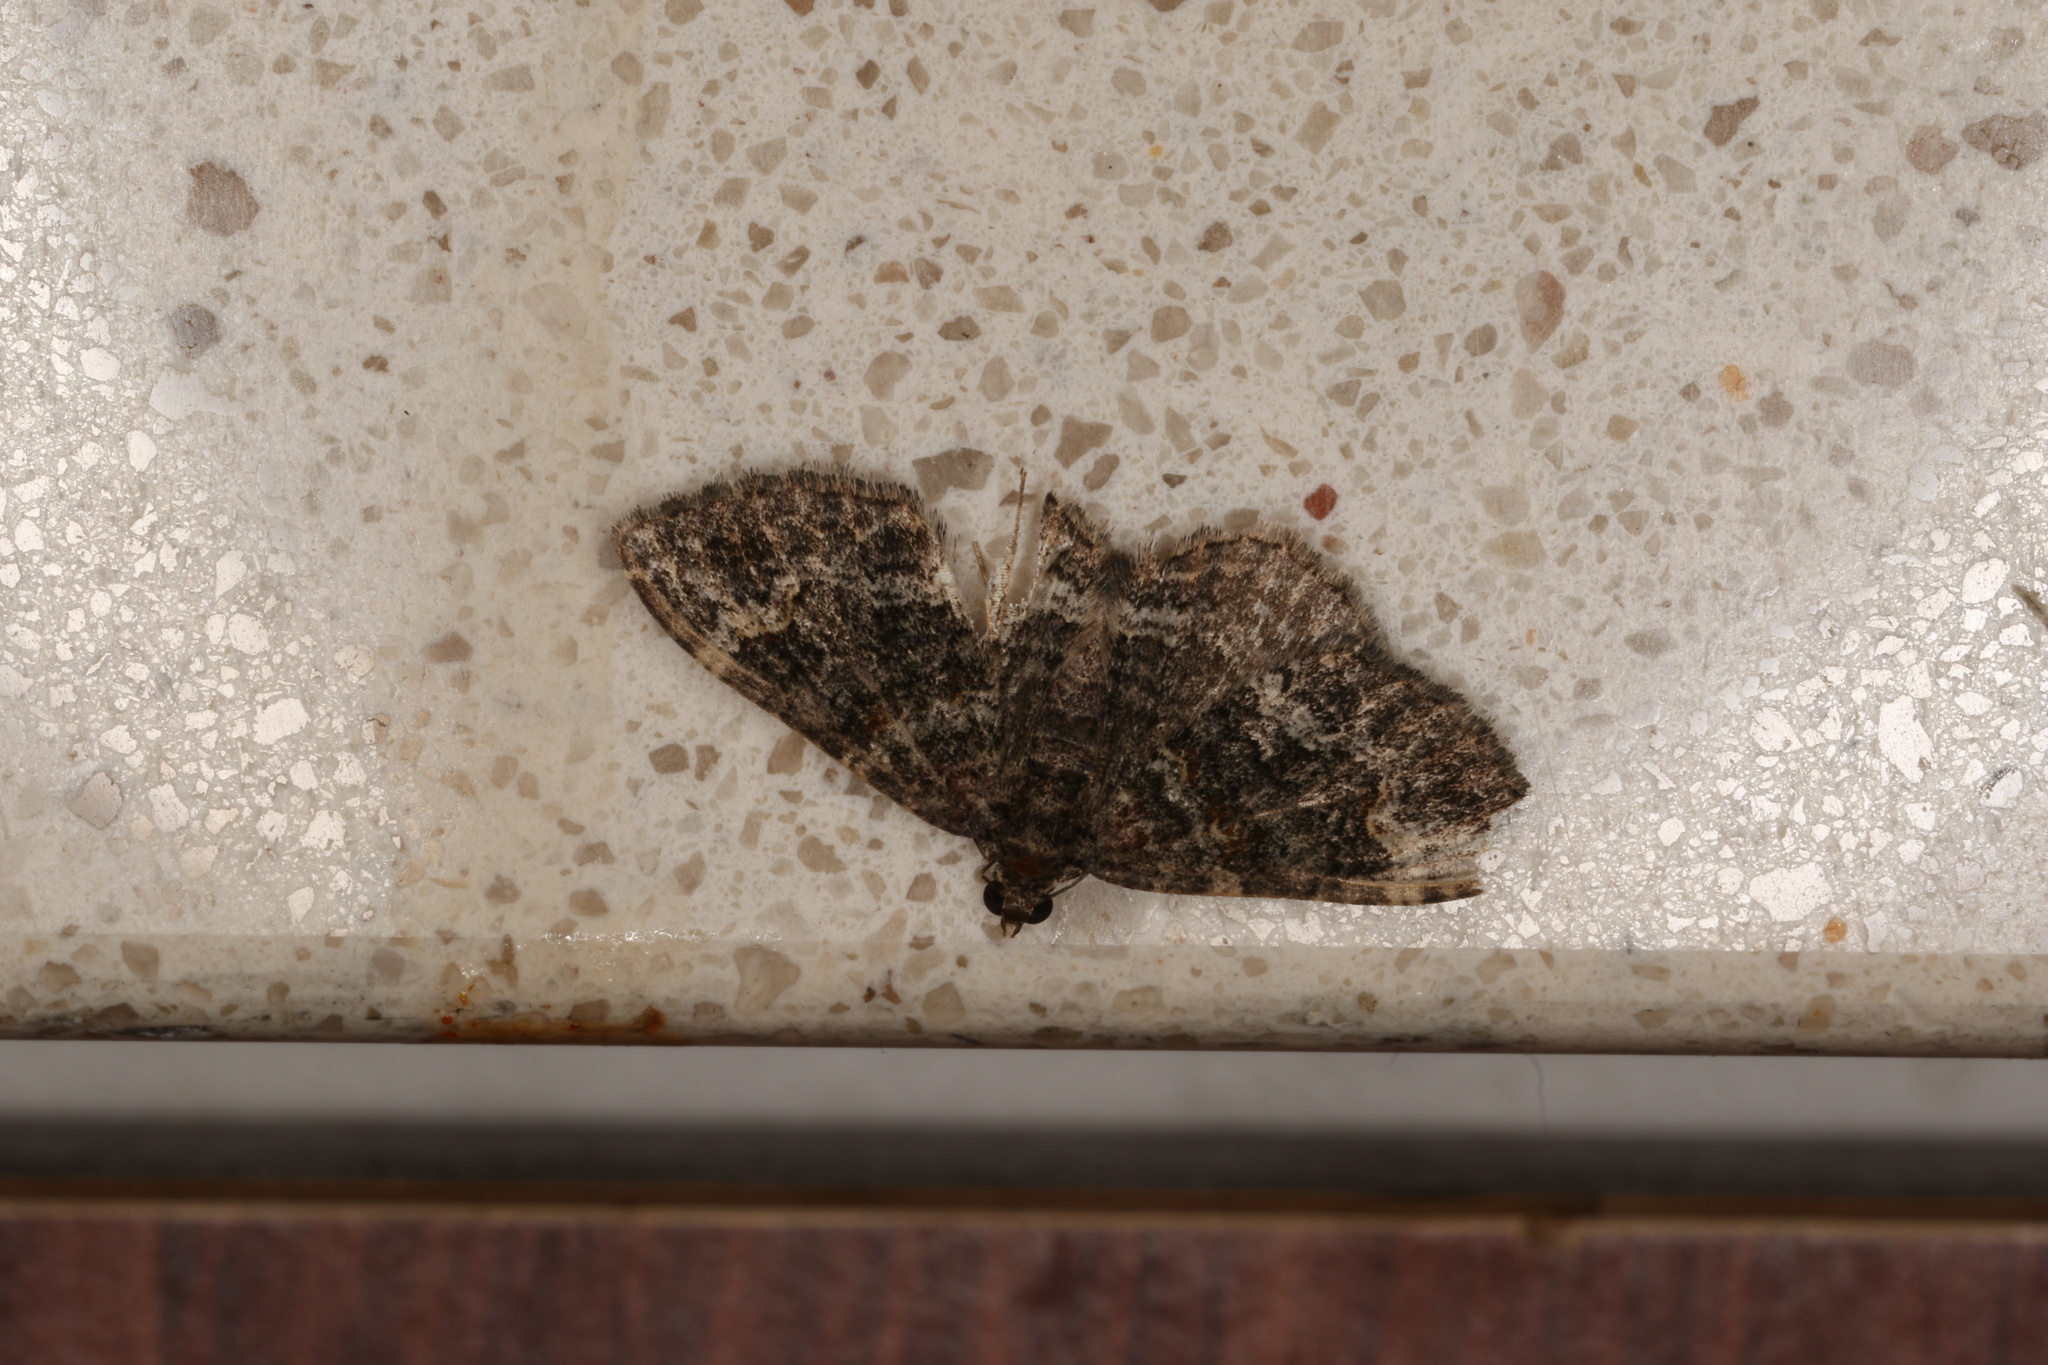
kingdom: Animalia
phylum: Arthropoda
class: Insecta
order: Lepidoptera
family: Geometridae
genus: Epyaxa
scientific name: Epyaxa sodaliata
